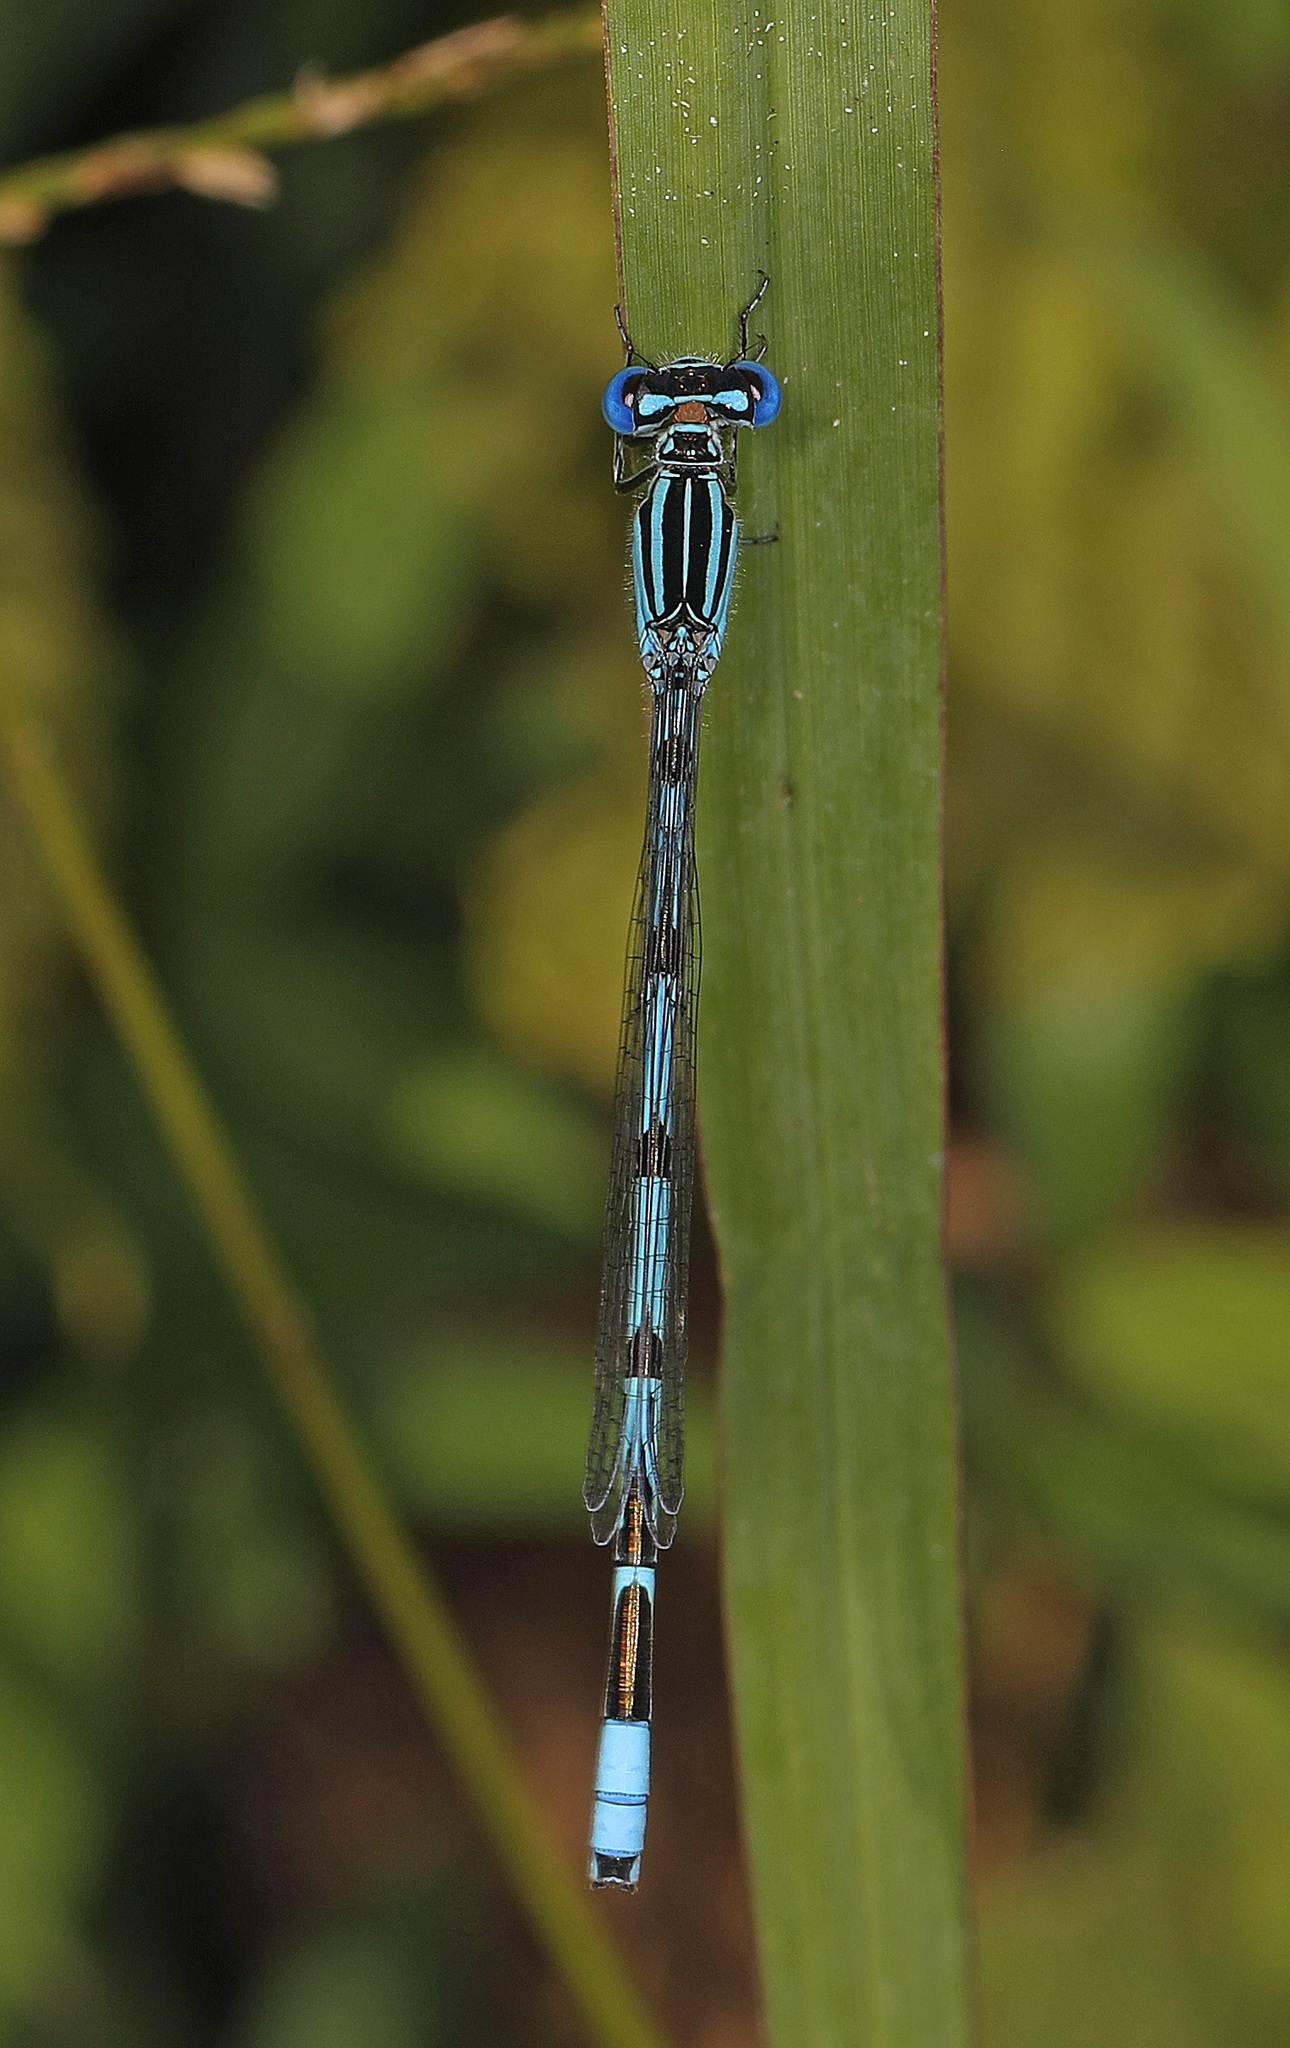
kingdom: Animalia
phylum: Arthropoda
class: Insecta
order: Odonata
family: Coenagrionidae
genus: Enallagma
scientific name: Enallagma durum
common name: Big bluet
